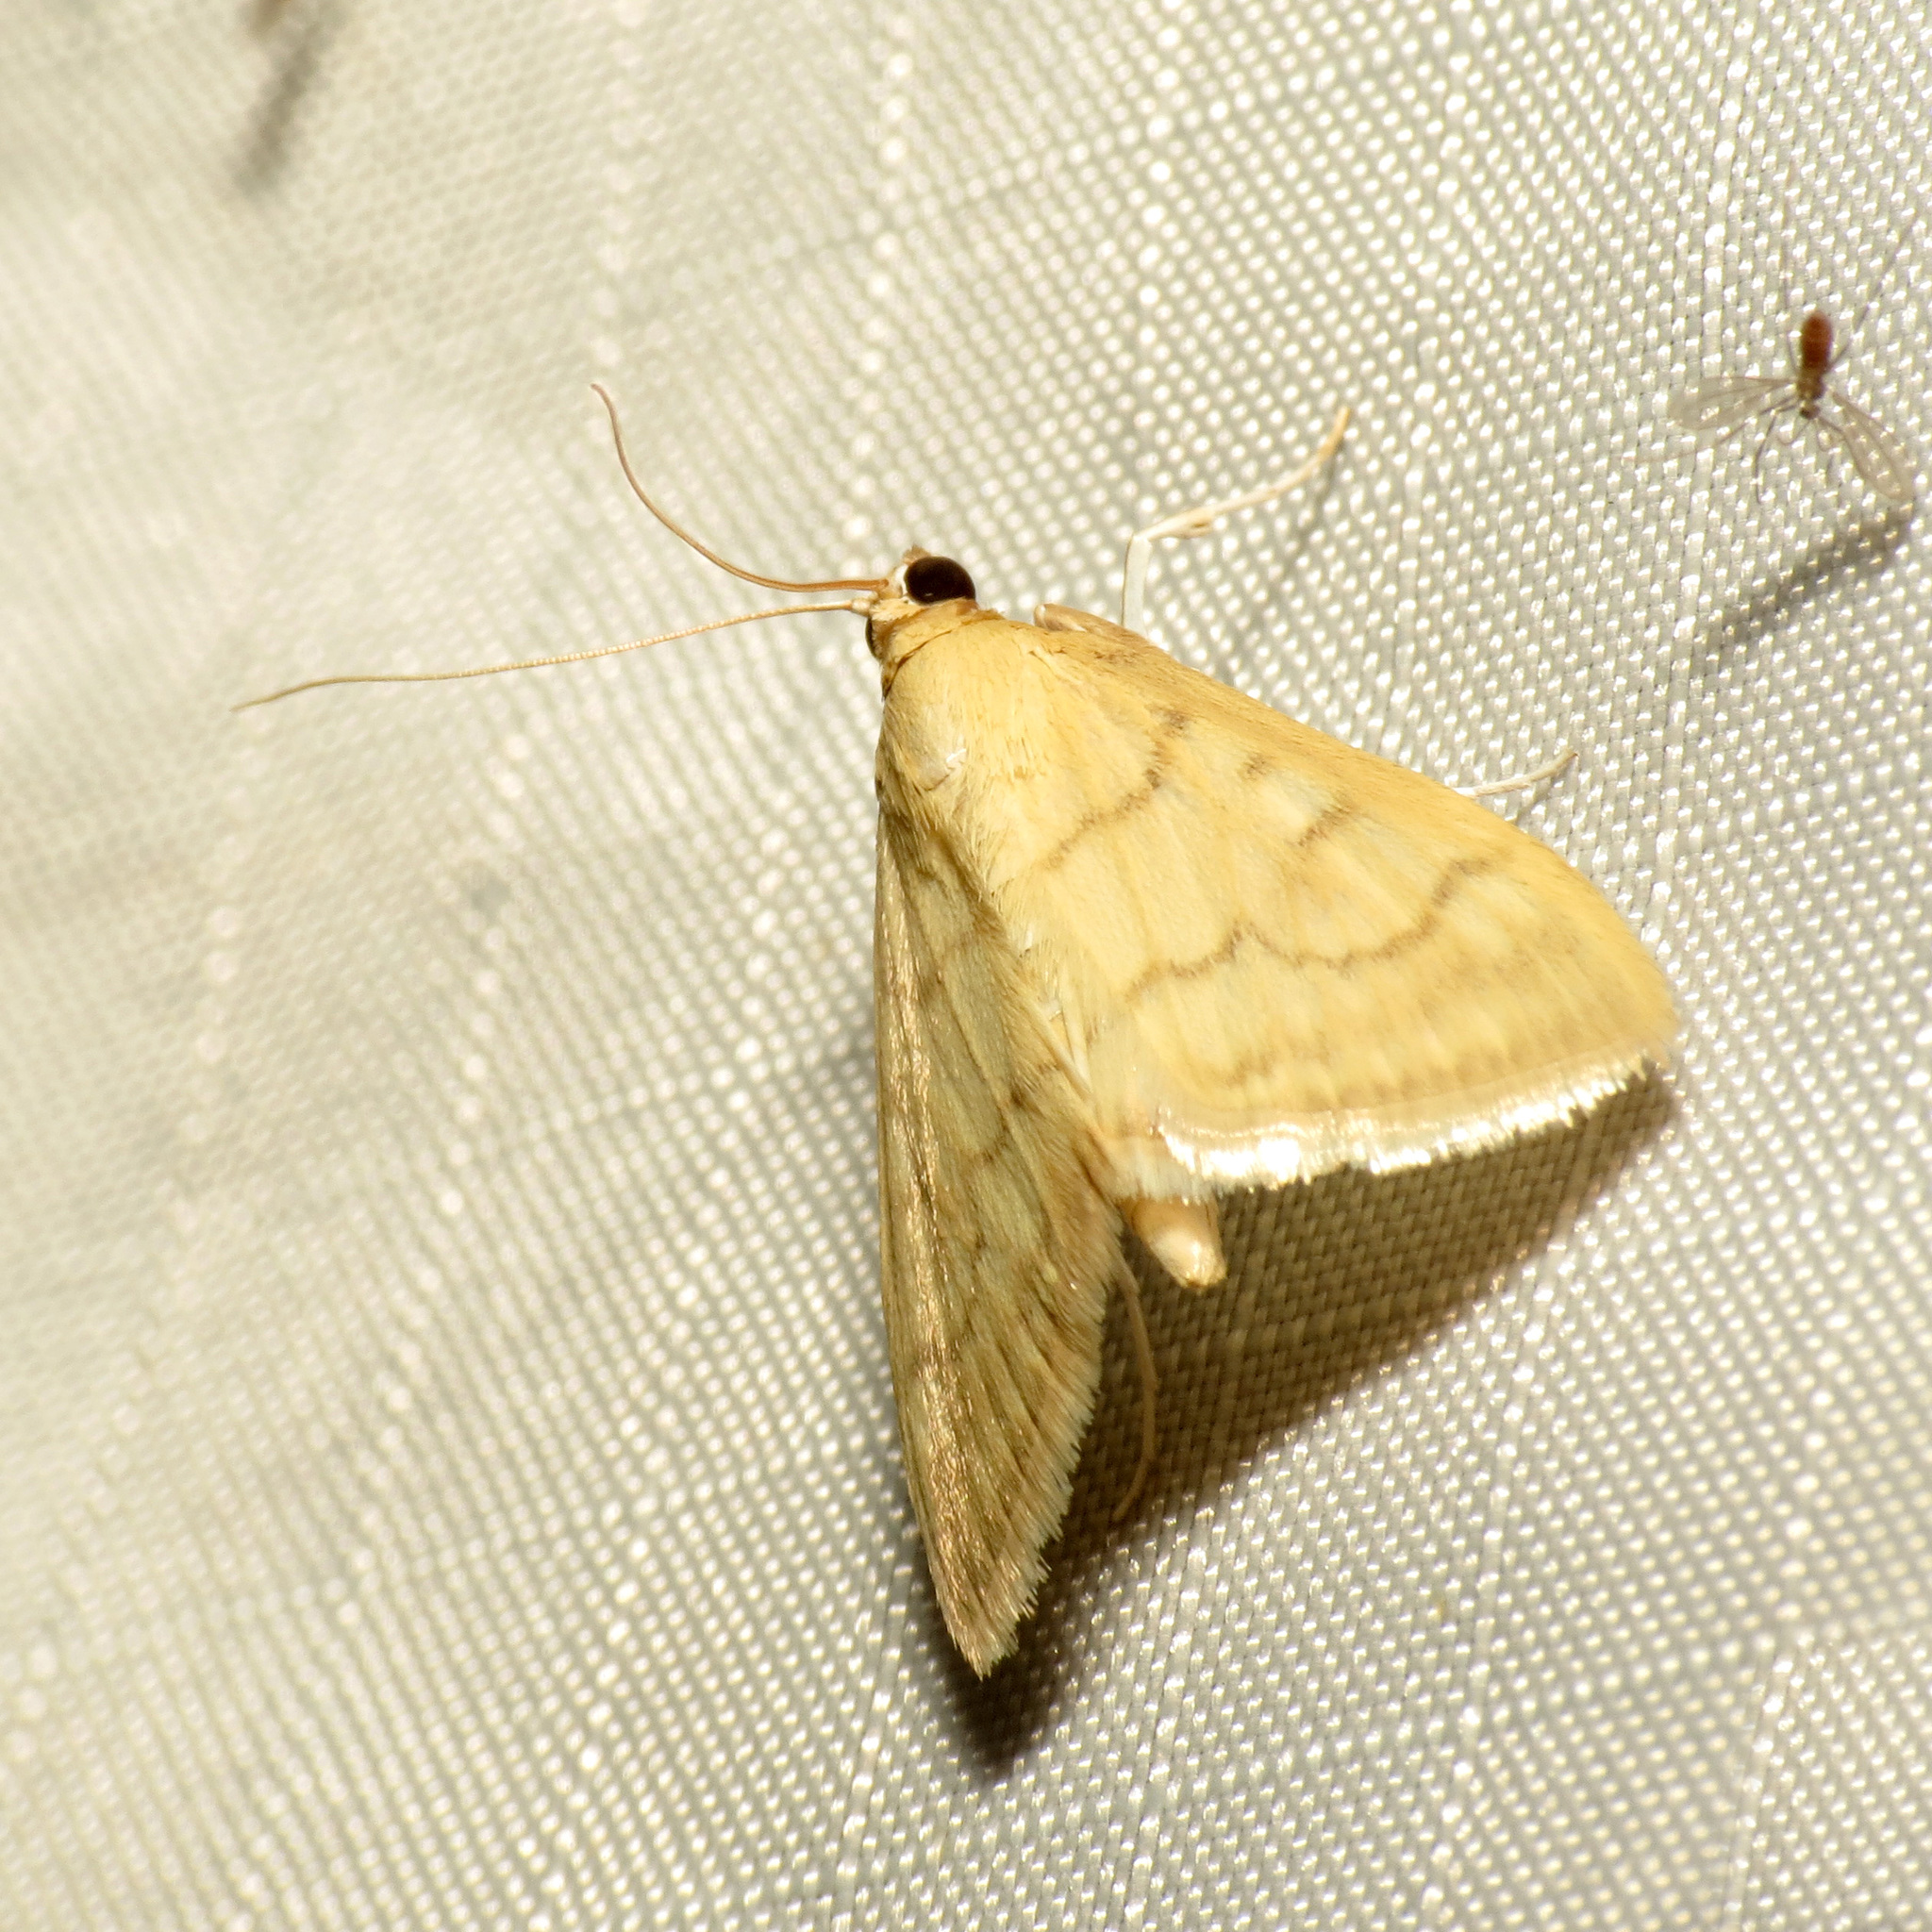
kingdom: Animalia
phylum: Arthropoda
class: Insecta
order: Lepidoptera
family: Crambidae
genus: Hahncappsia
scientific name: Hahncappsia mancalis
